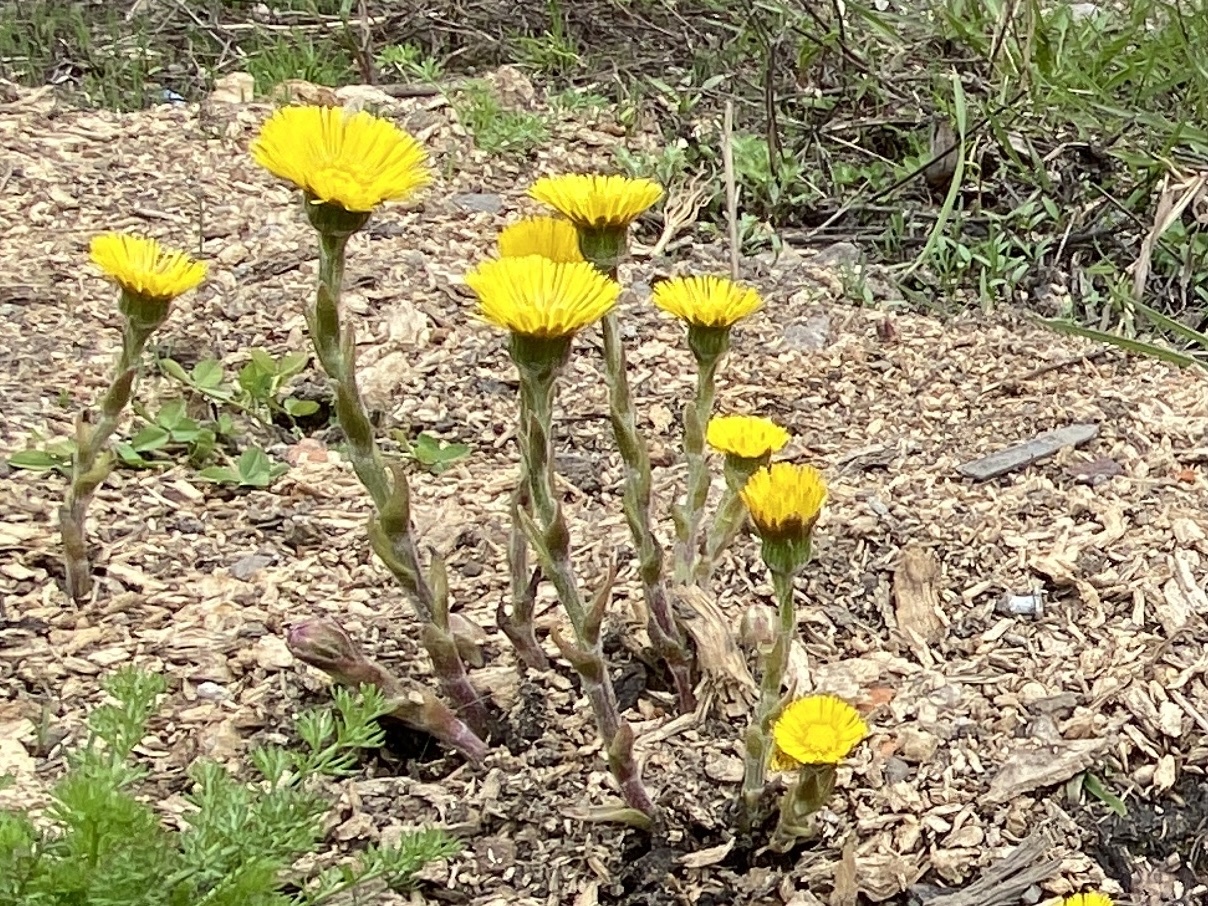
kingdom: Plantae
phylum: Tracheophyta
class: Magnoliopsida
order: Asterales
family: Asteraceae
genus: Tussilago
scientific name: Tussilago farfara
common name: Coltsfoot
